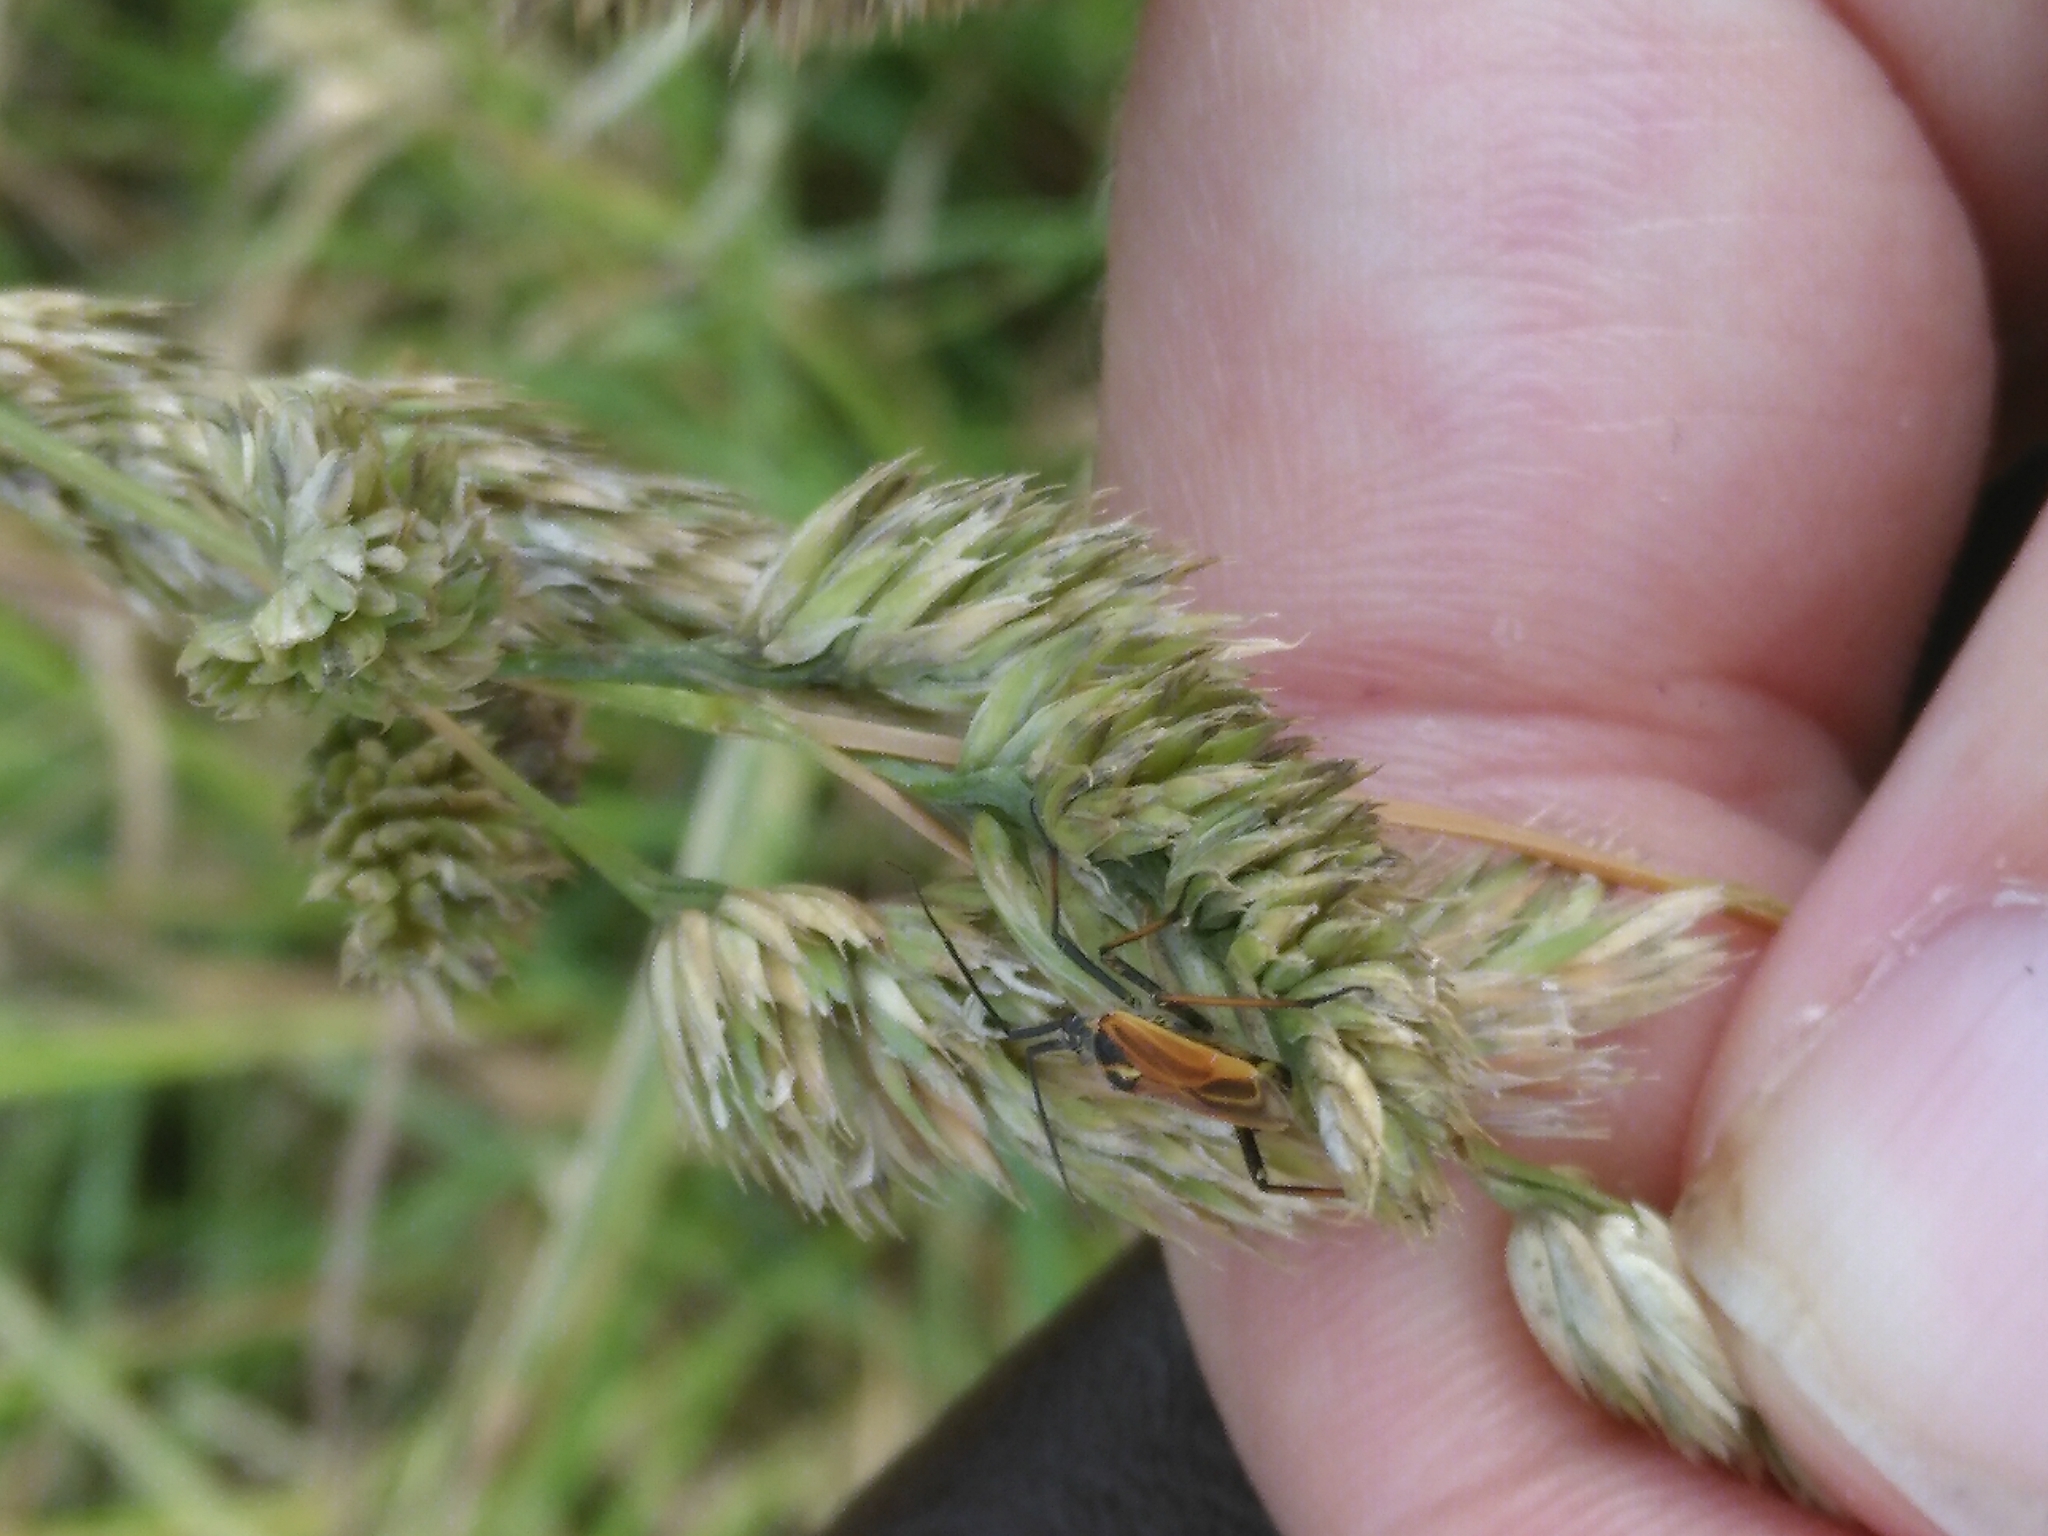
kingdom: Animalia
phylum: Arthropoda
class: Insecta
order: Hemiptera
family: Miridae
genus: Leptopterna
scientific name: Leptopterna dolabrata
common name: Meadow plant bug
